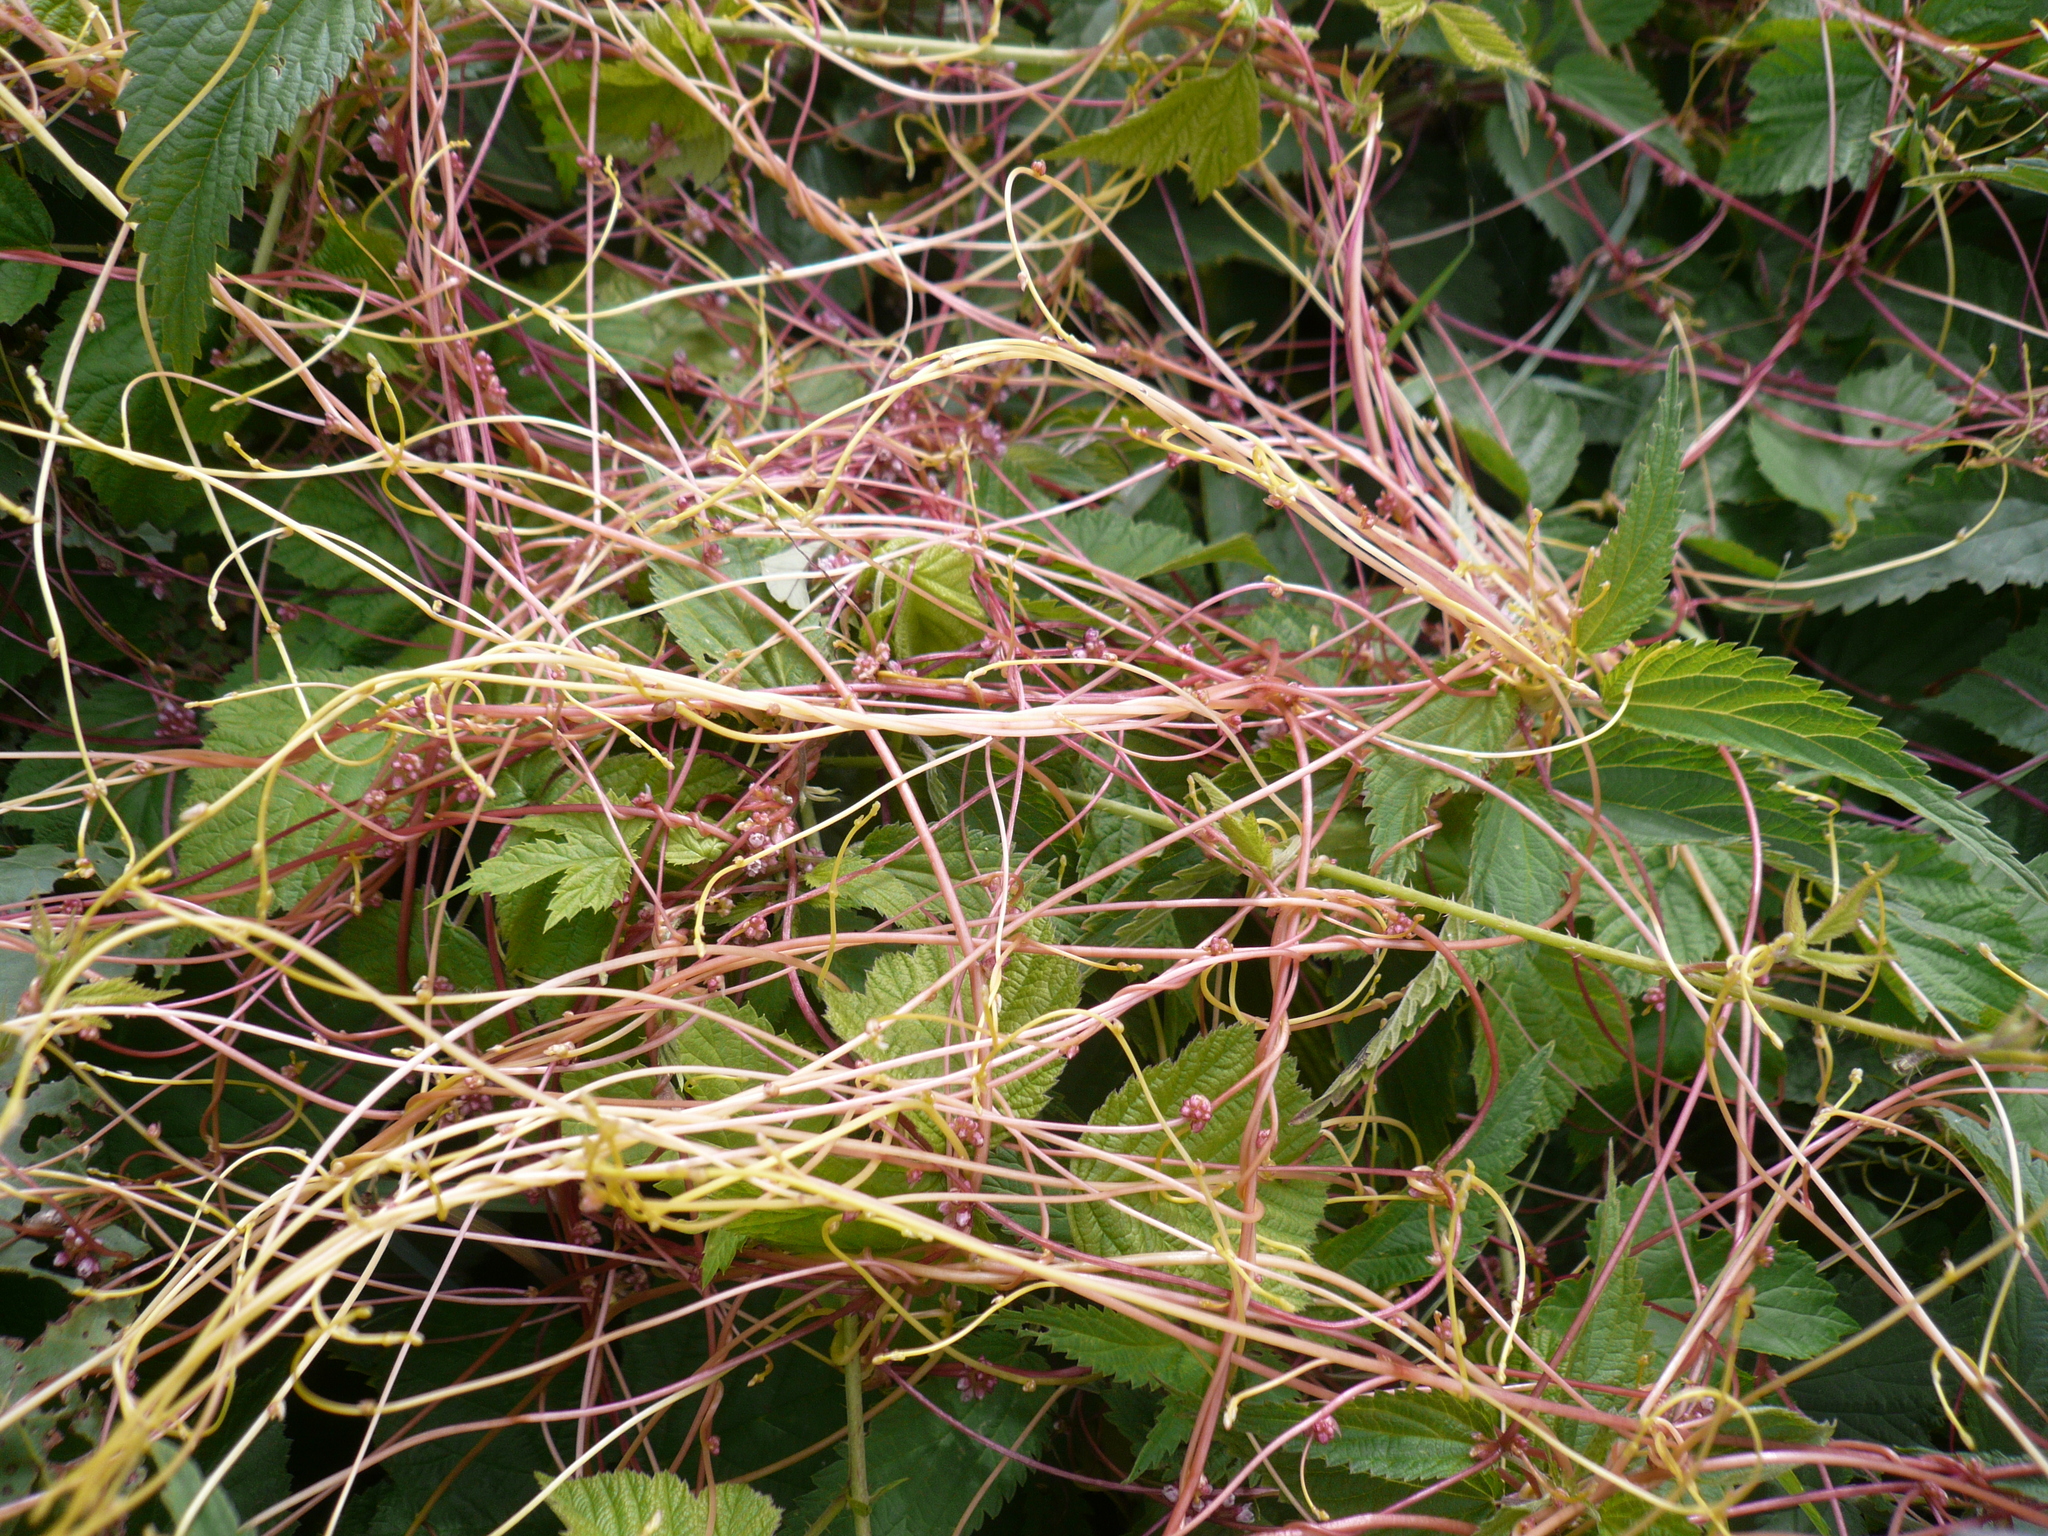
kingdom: Plantae
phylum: Tracheophyta
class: Magnoliopsida
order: Solanales
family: Convolvulaceae
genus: Cuscuta
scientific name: Cuscuta europaea
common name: Greater dodder
